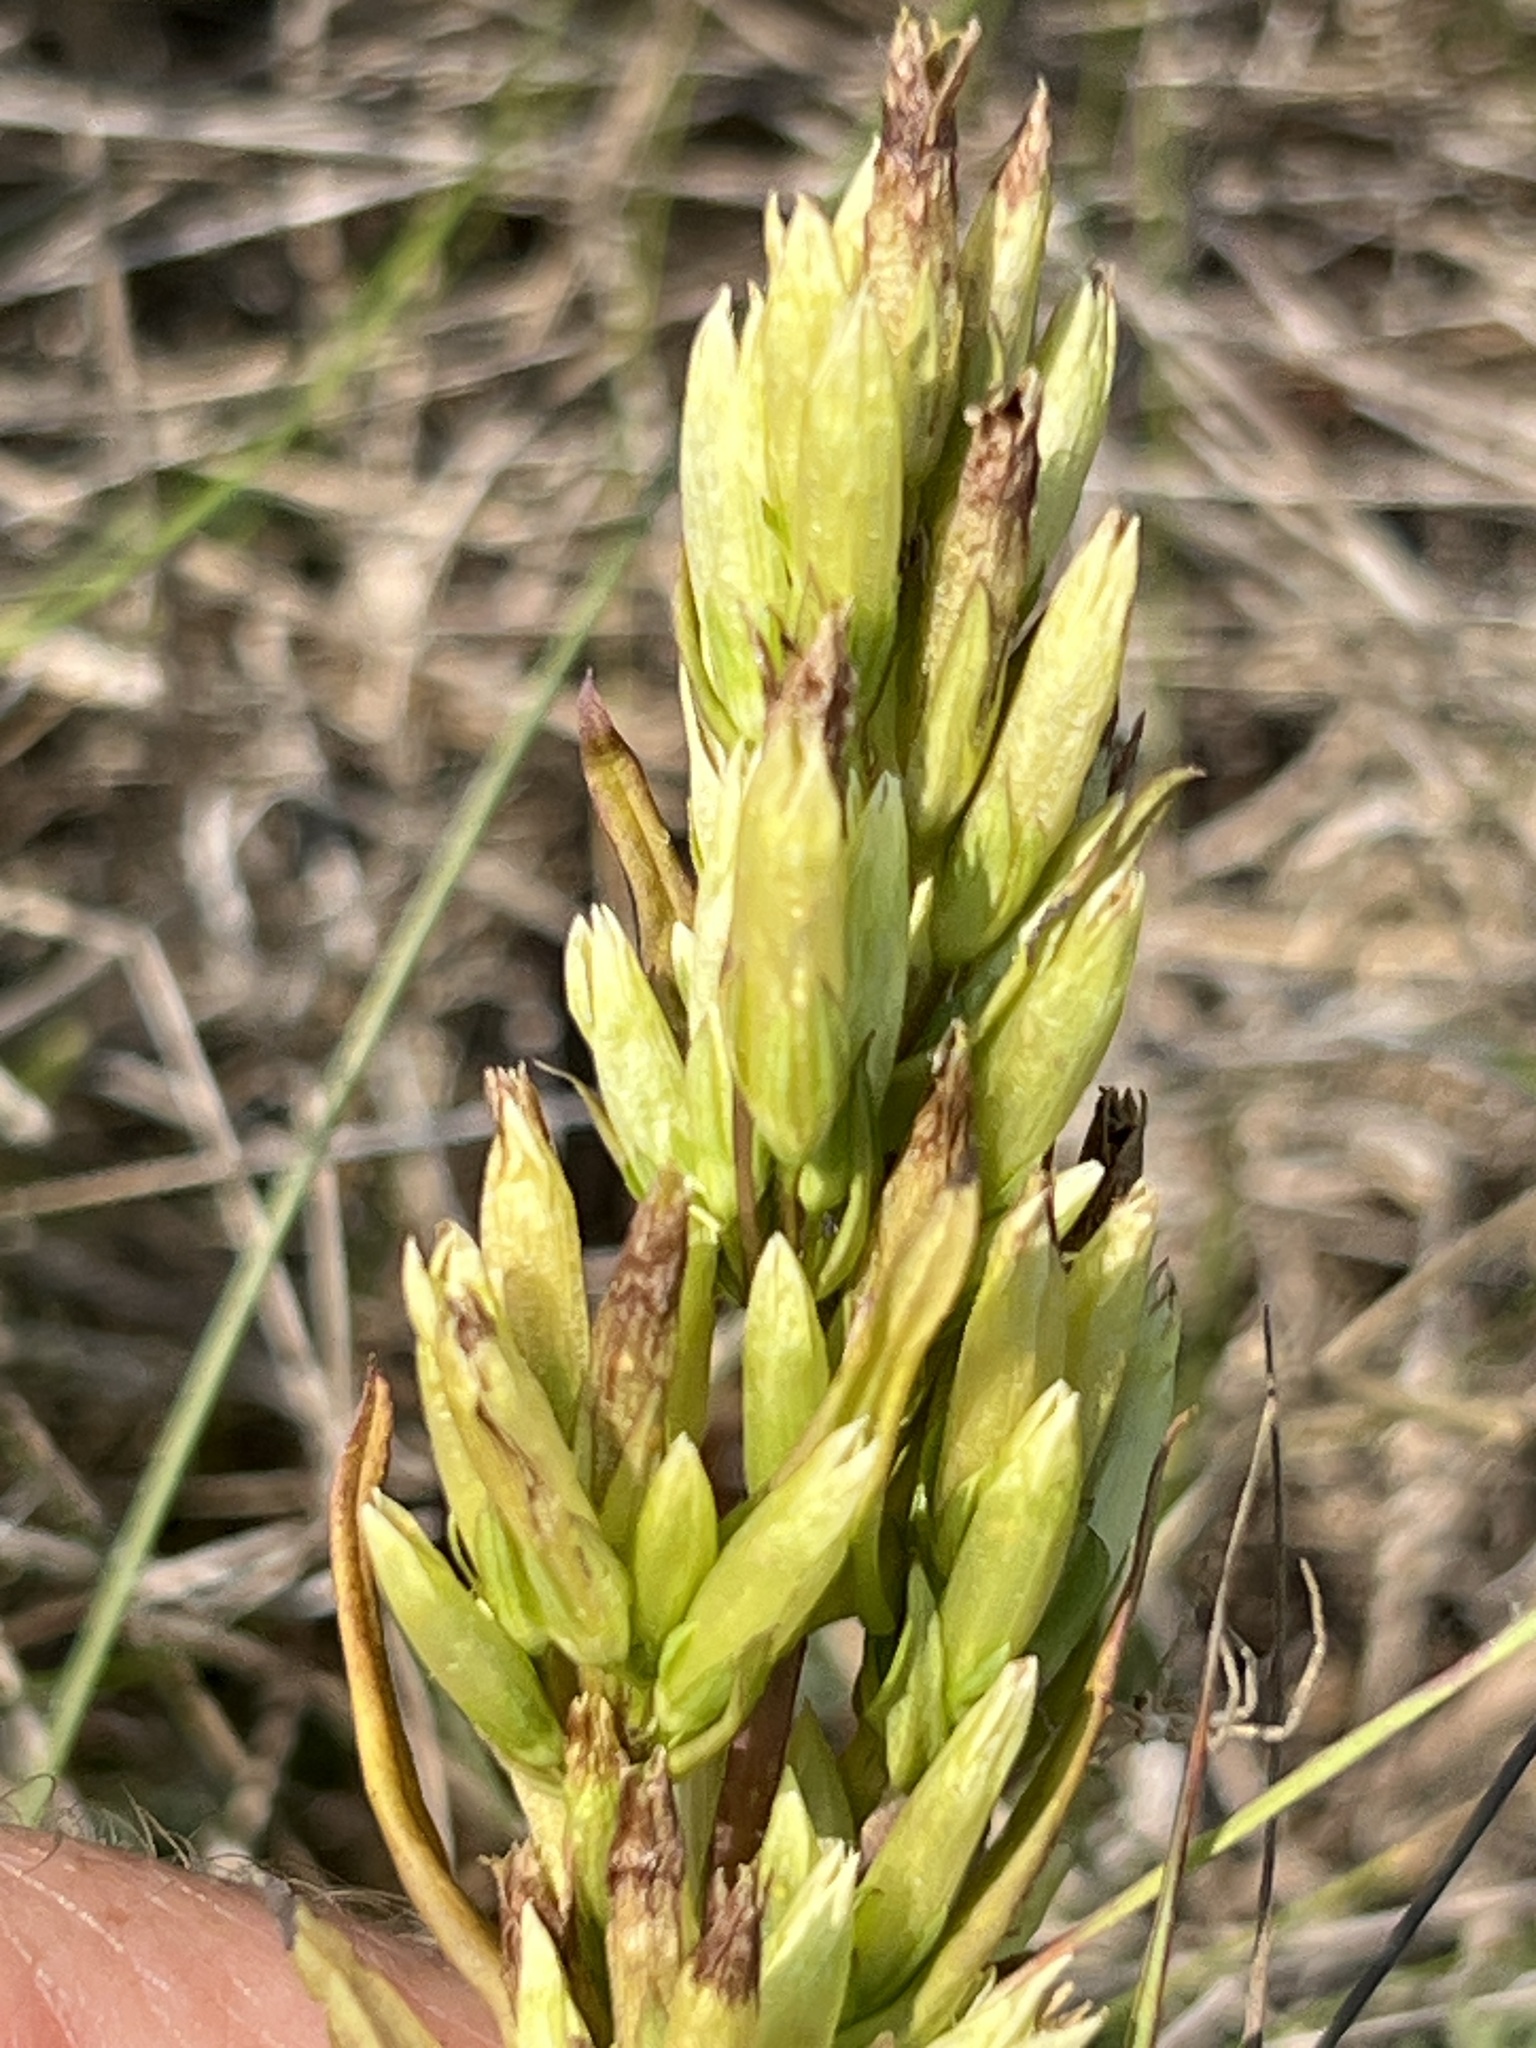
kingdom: Plantae
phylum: Tracheophyta
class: Magnoliopsida
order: Gentianales
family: Gentianaceae
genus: Gentianella
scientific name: Gentianella amarella
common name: Autumn gentian
